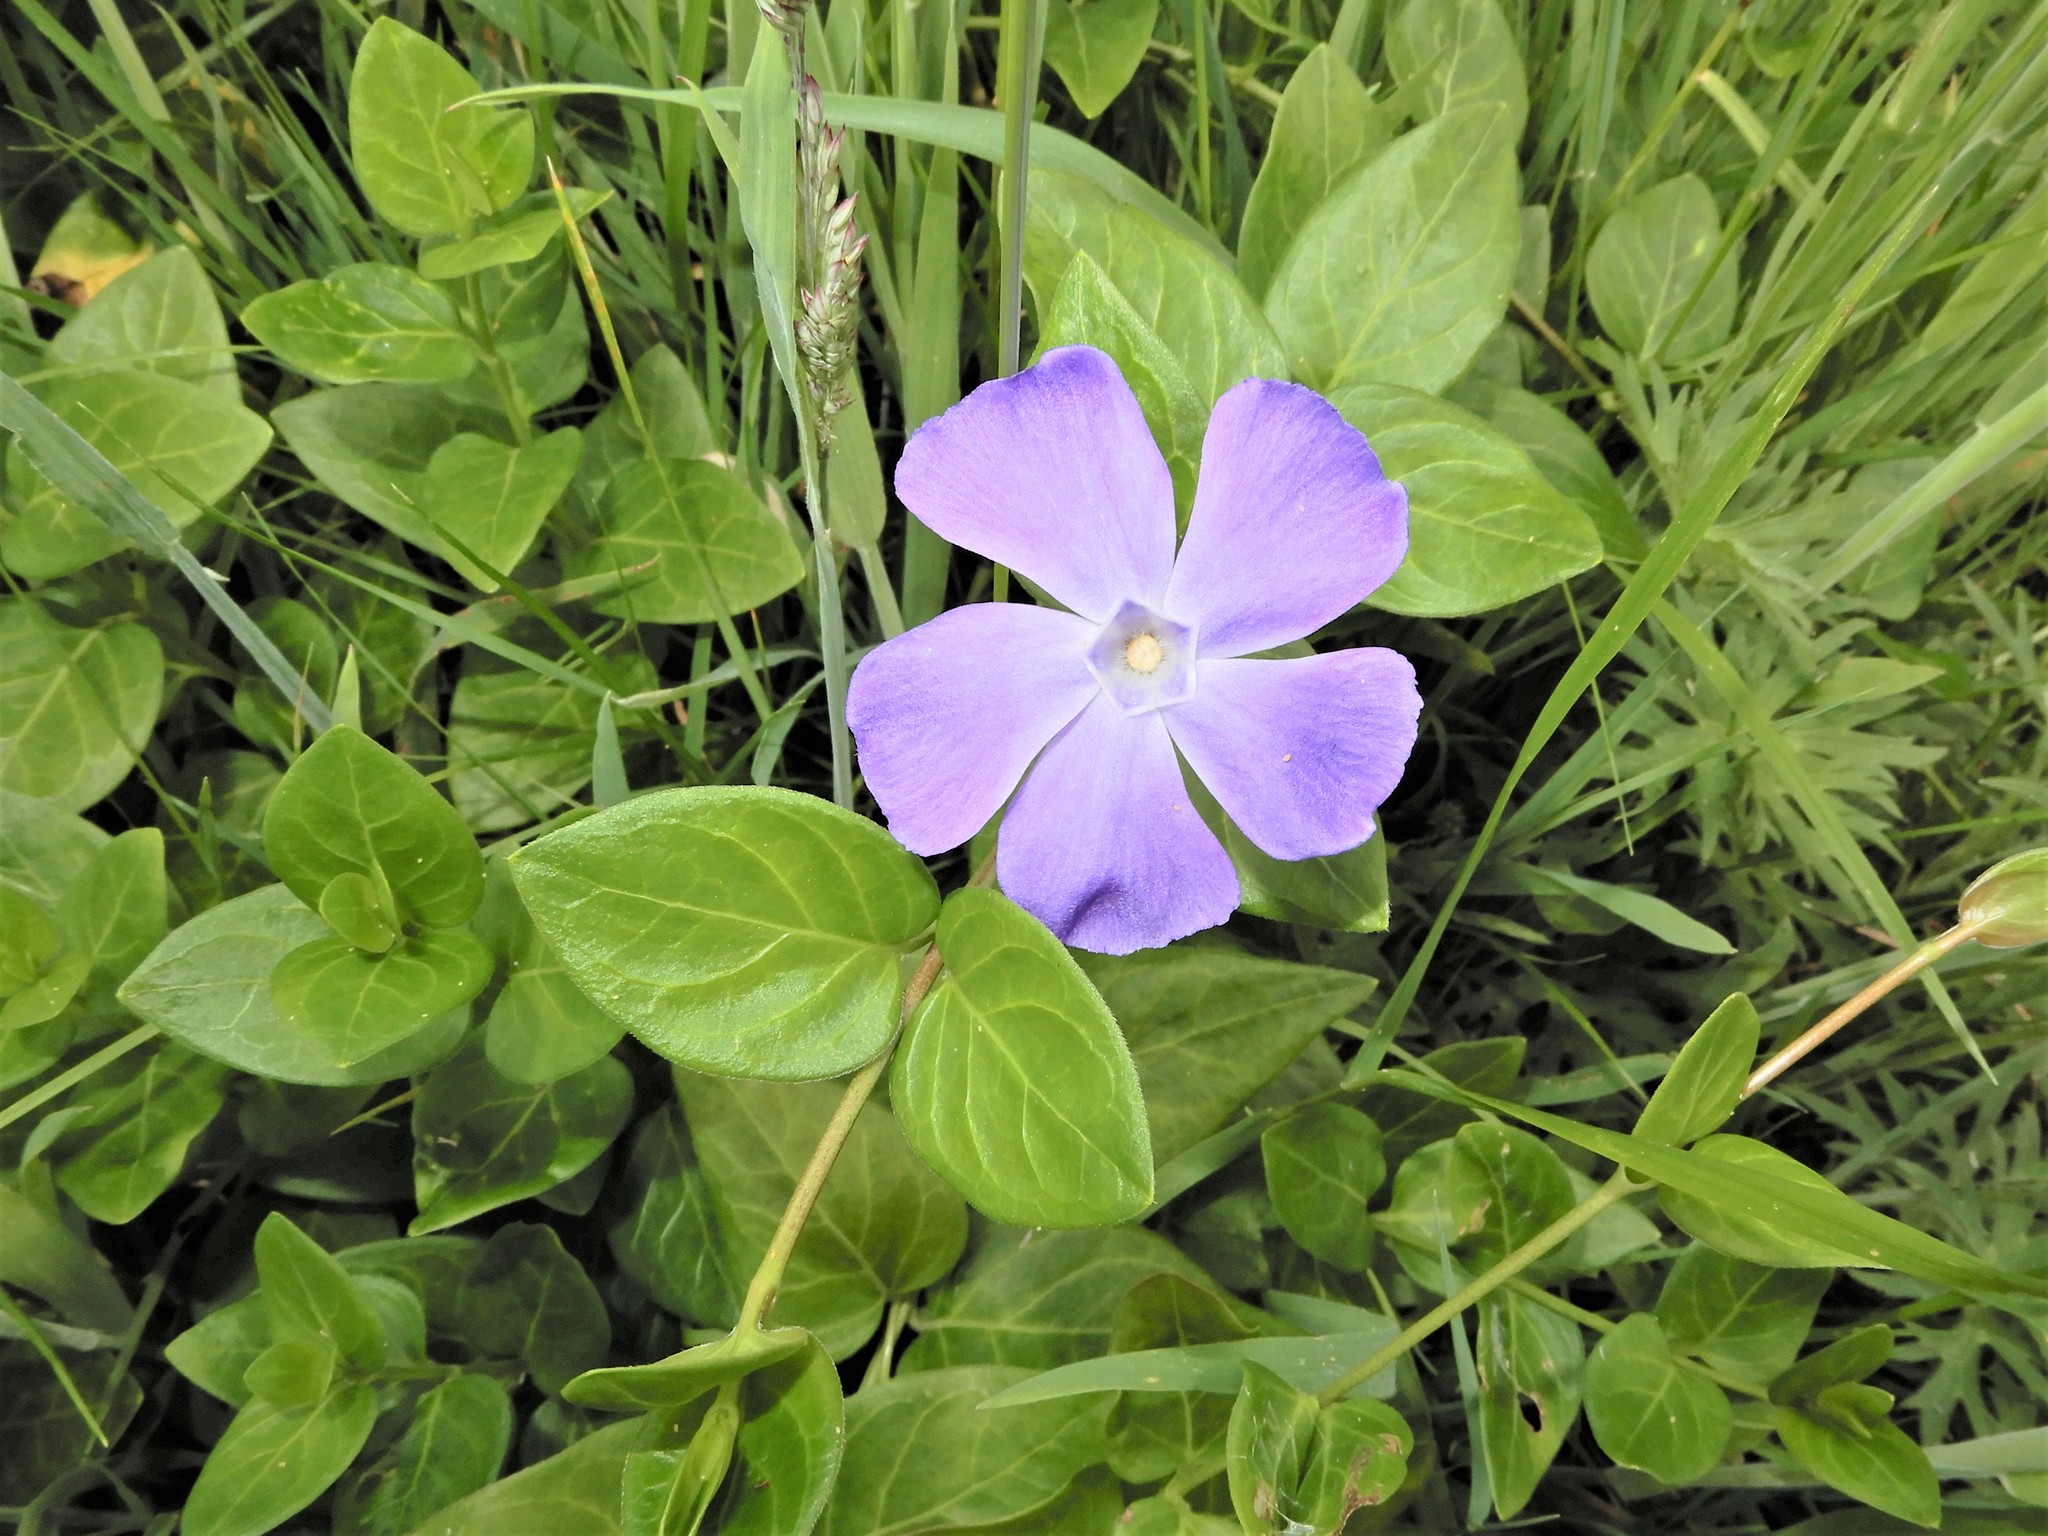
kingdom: Plantae
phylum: Tracheophyta
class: Magnoliopsida
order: Gentianales
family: Apocynaceae
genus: Vinca
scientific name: Vinca major
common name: Greater periwinkle
